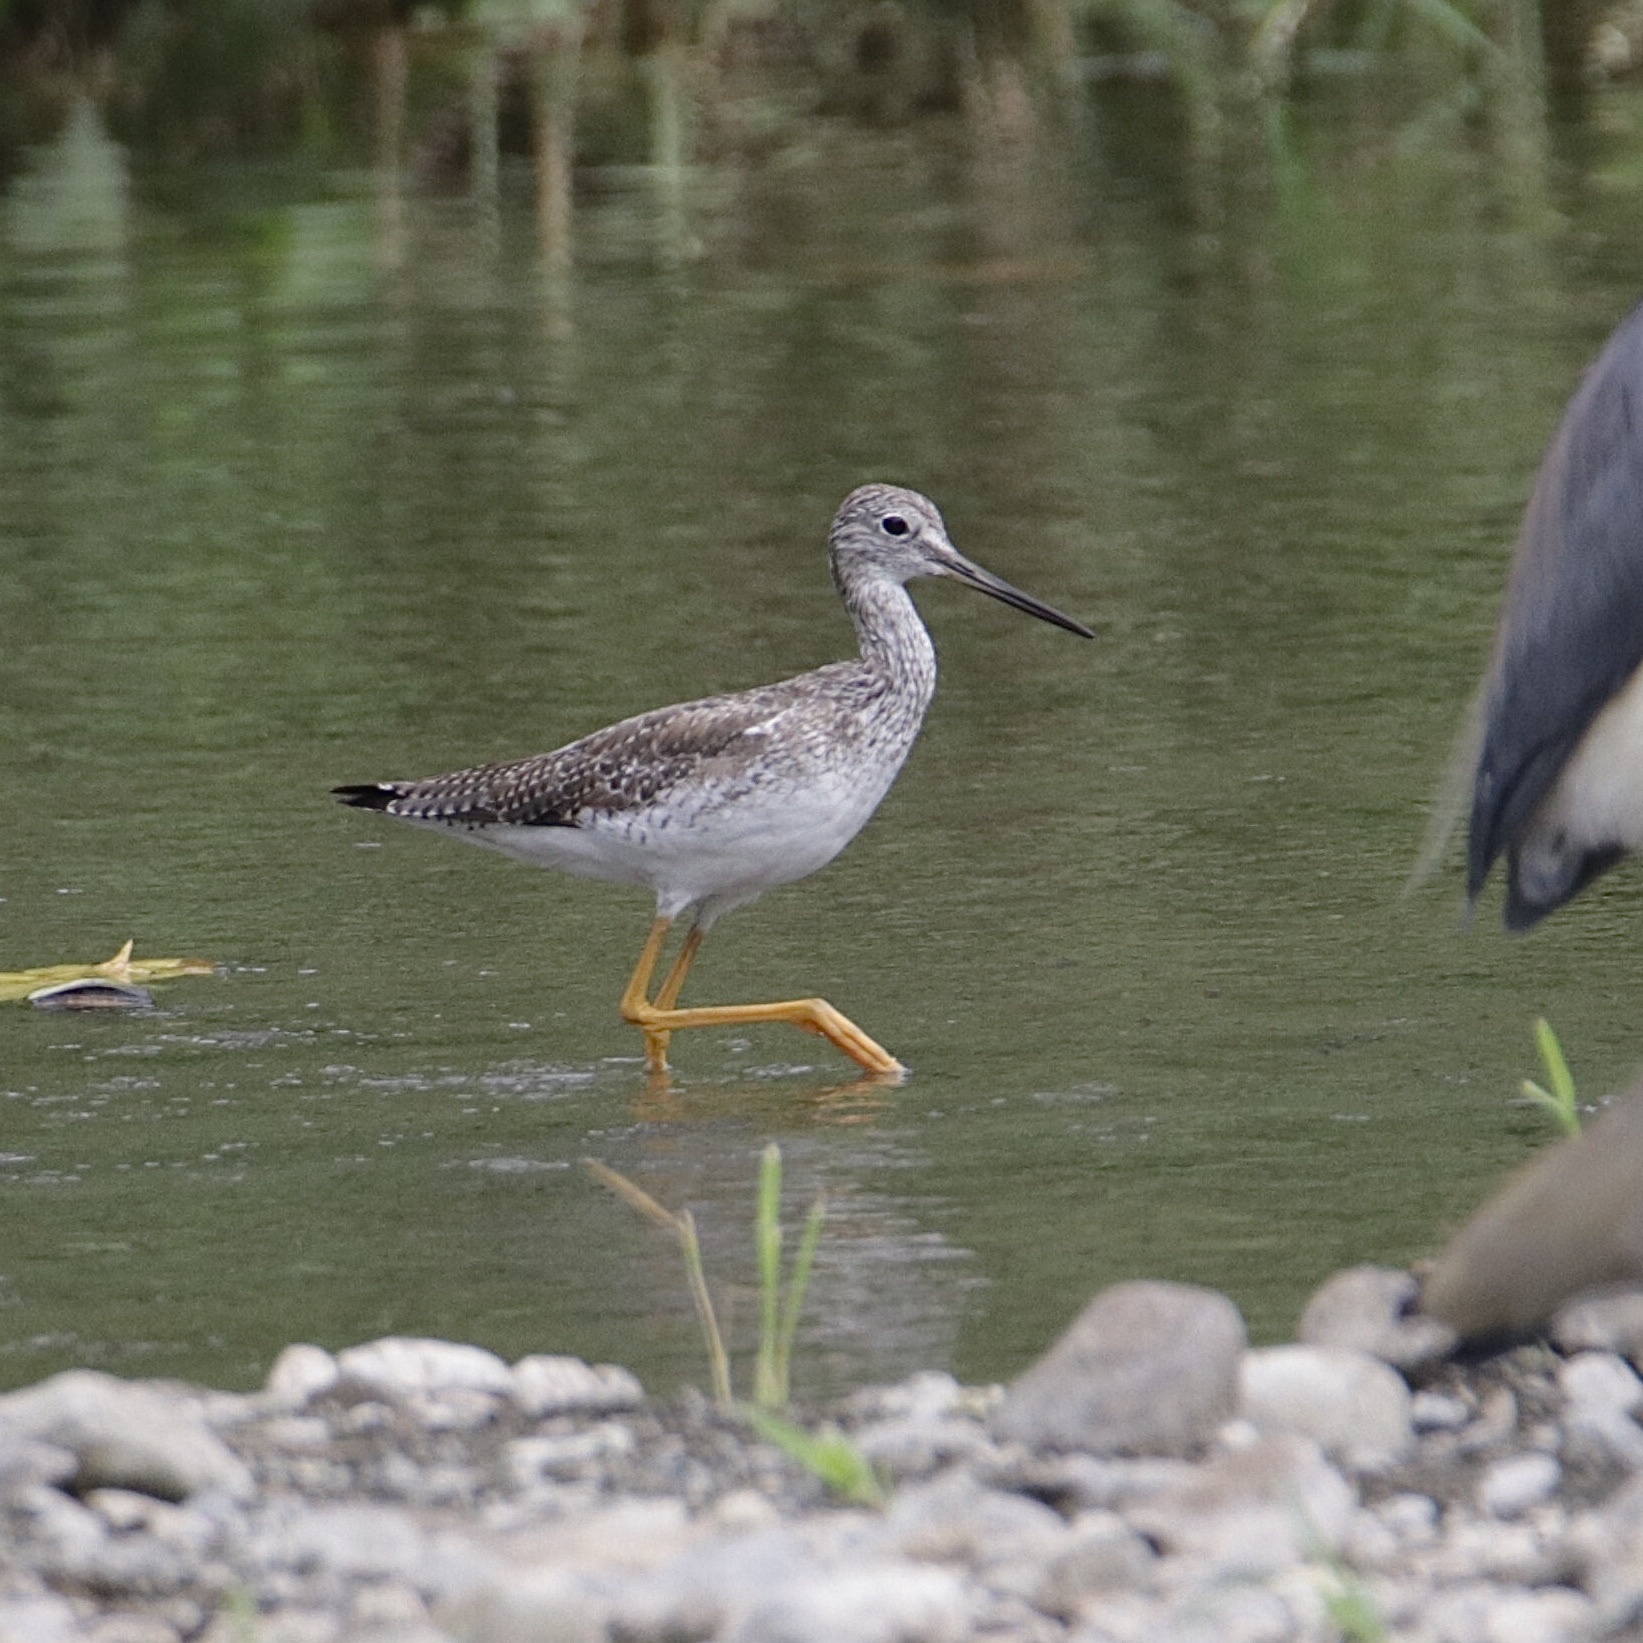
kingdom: Animalia
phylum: Chordata
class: Aves
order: Charadriiformes
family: Scolopacidae
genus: Tringa
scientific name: Tringa melanoleuca
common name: Greater yellowlegs
